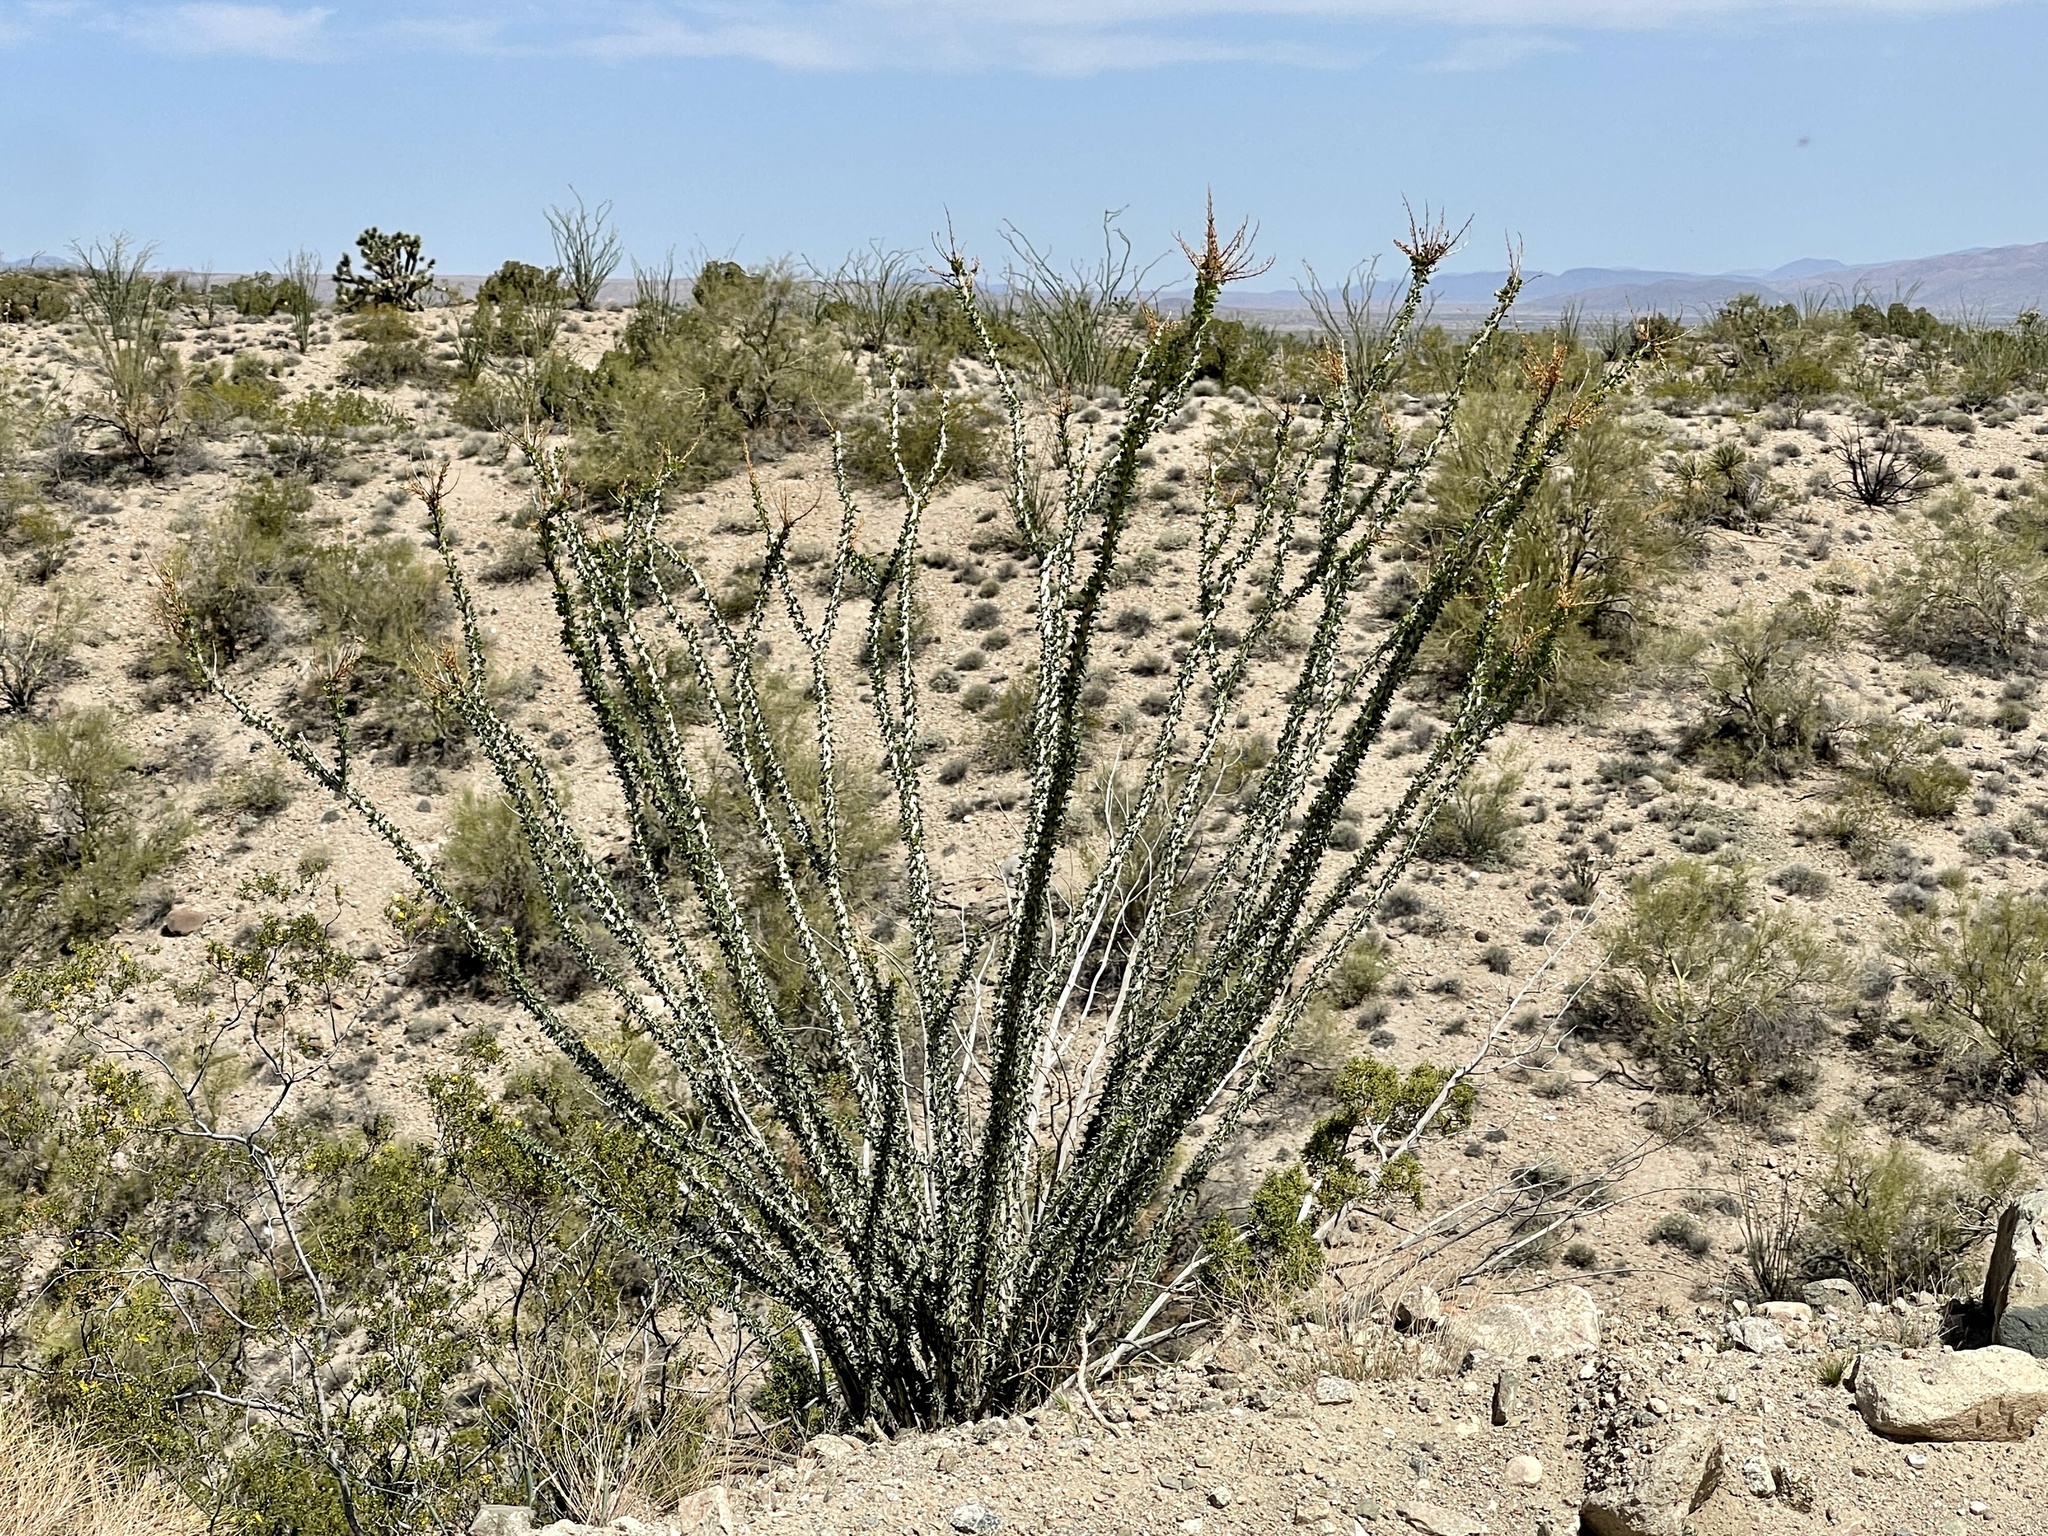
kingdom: Plantae
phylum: Tracheophyta
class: Magnoliopsida
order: Ericales
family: Fouquieriaceae
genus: Fouquieria
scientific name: Fouquieria splendens
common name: Vine-cactus
